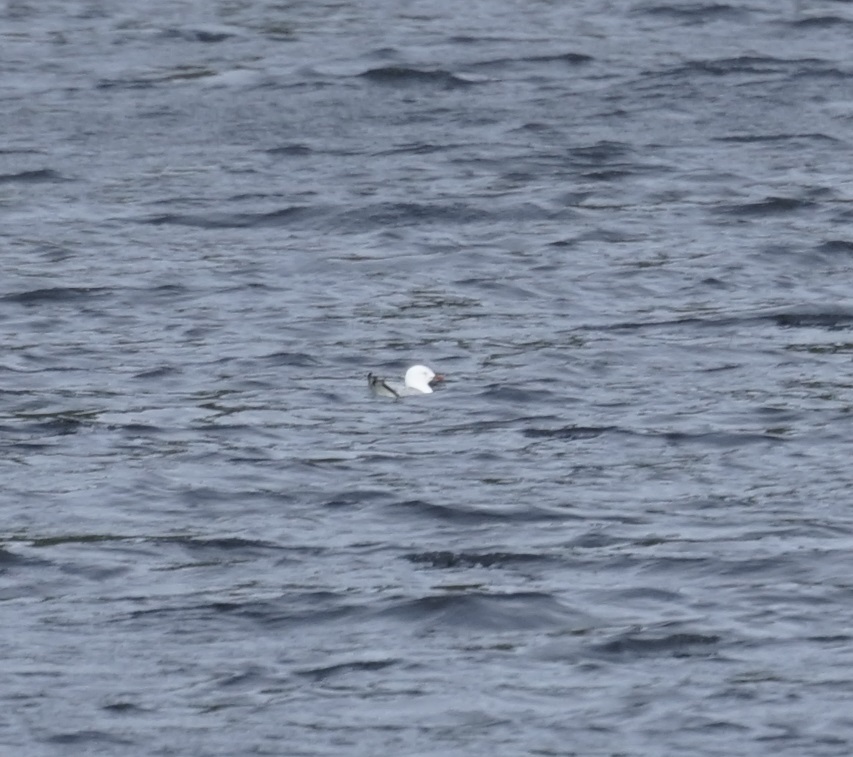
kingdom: Animalia
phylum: Chordata
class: Aves
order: Charadriiformes
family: Laridae
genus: Chroicocephalus
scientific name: Chroicocephalus novaehollandiae
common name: Silver gull
